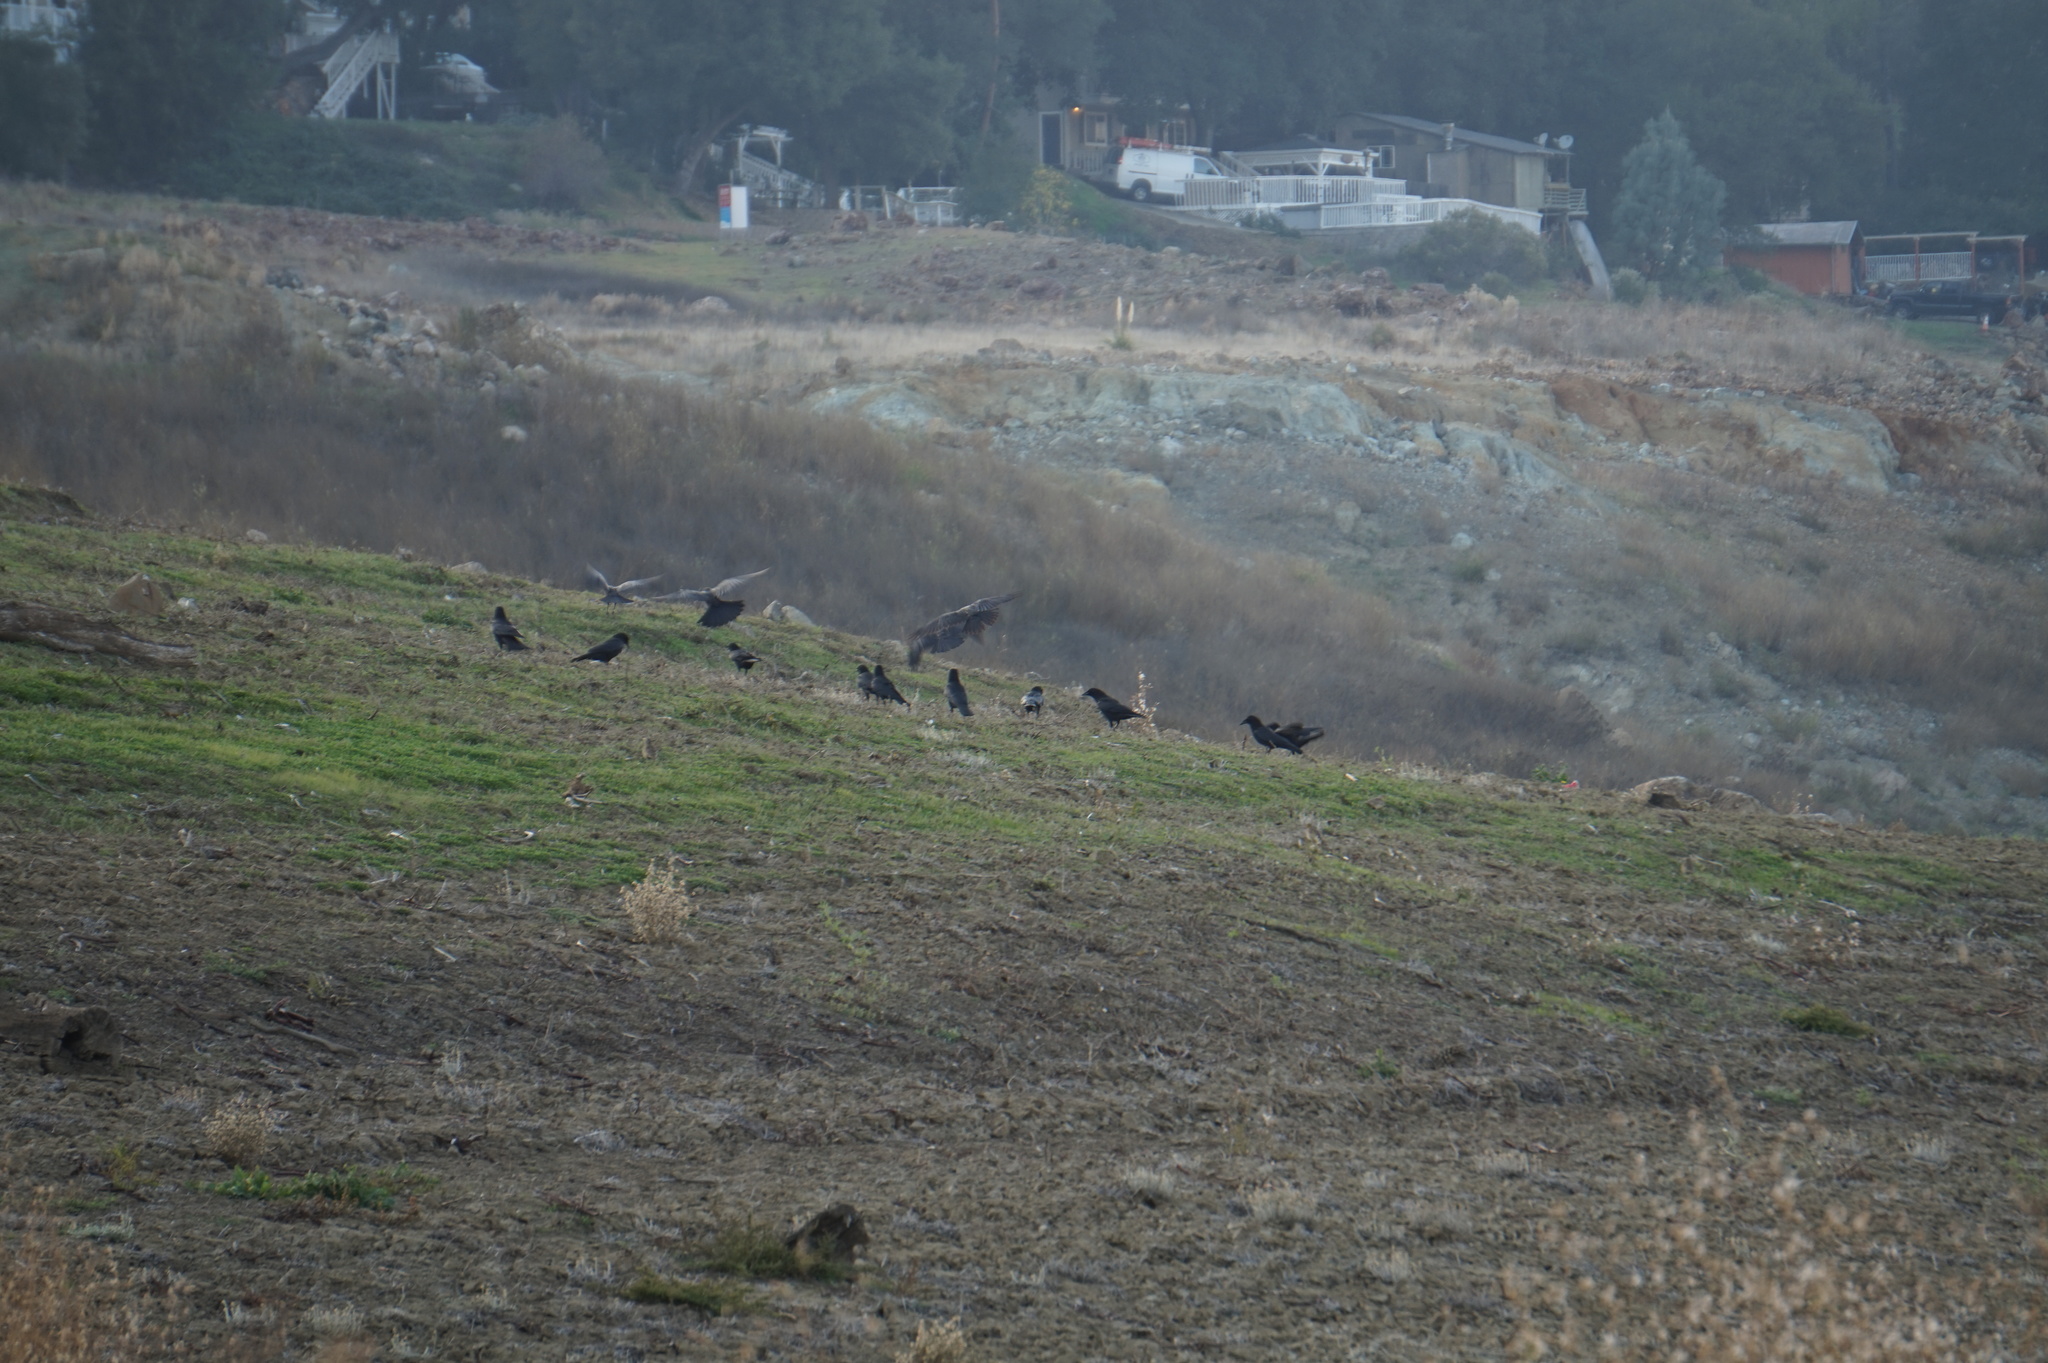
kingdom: Animalia
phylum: Chordata
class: Aves
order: Passeriformes
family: Corvidae
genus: Corvus
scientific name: Corvus brachyrhynchos
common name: American crow
